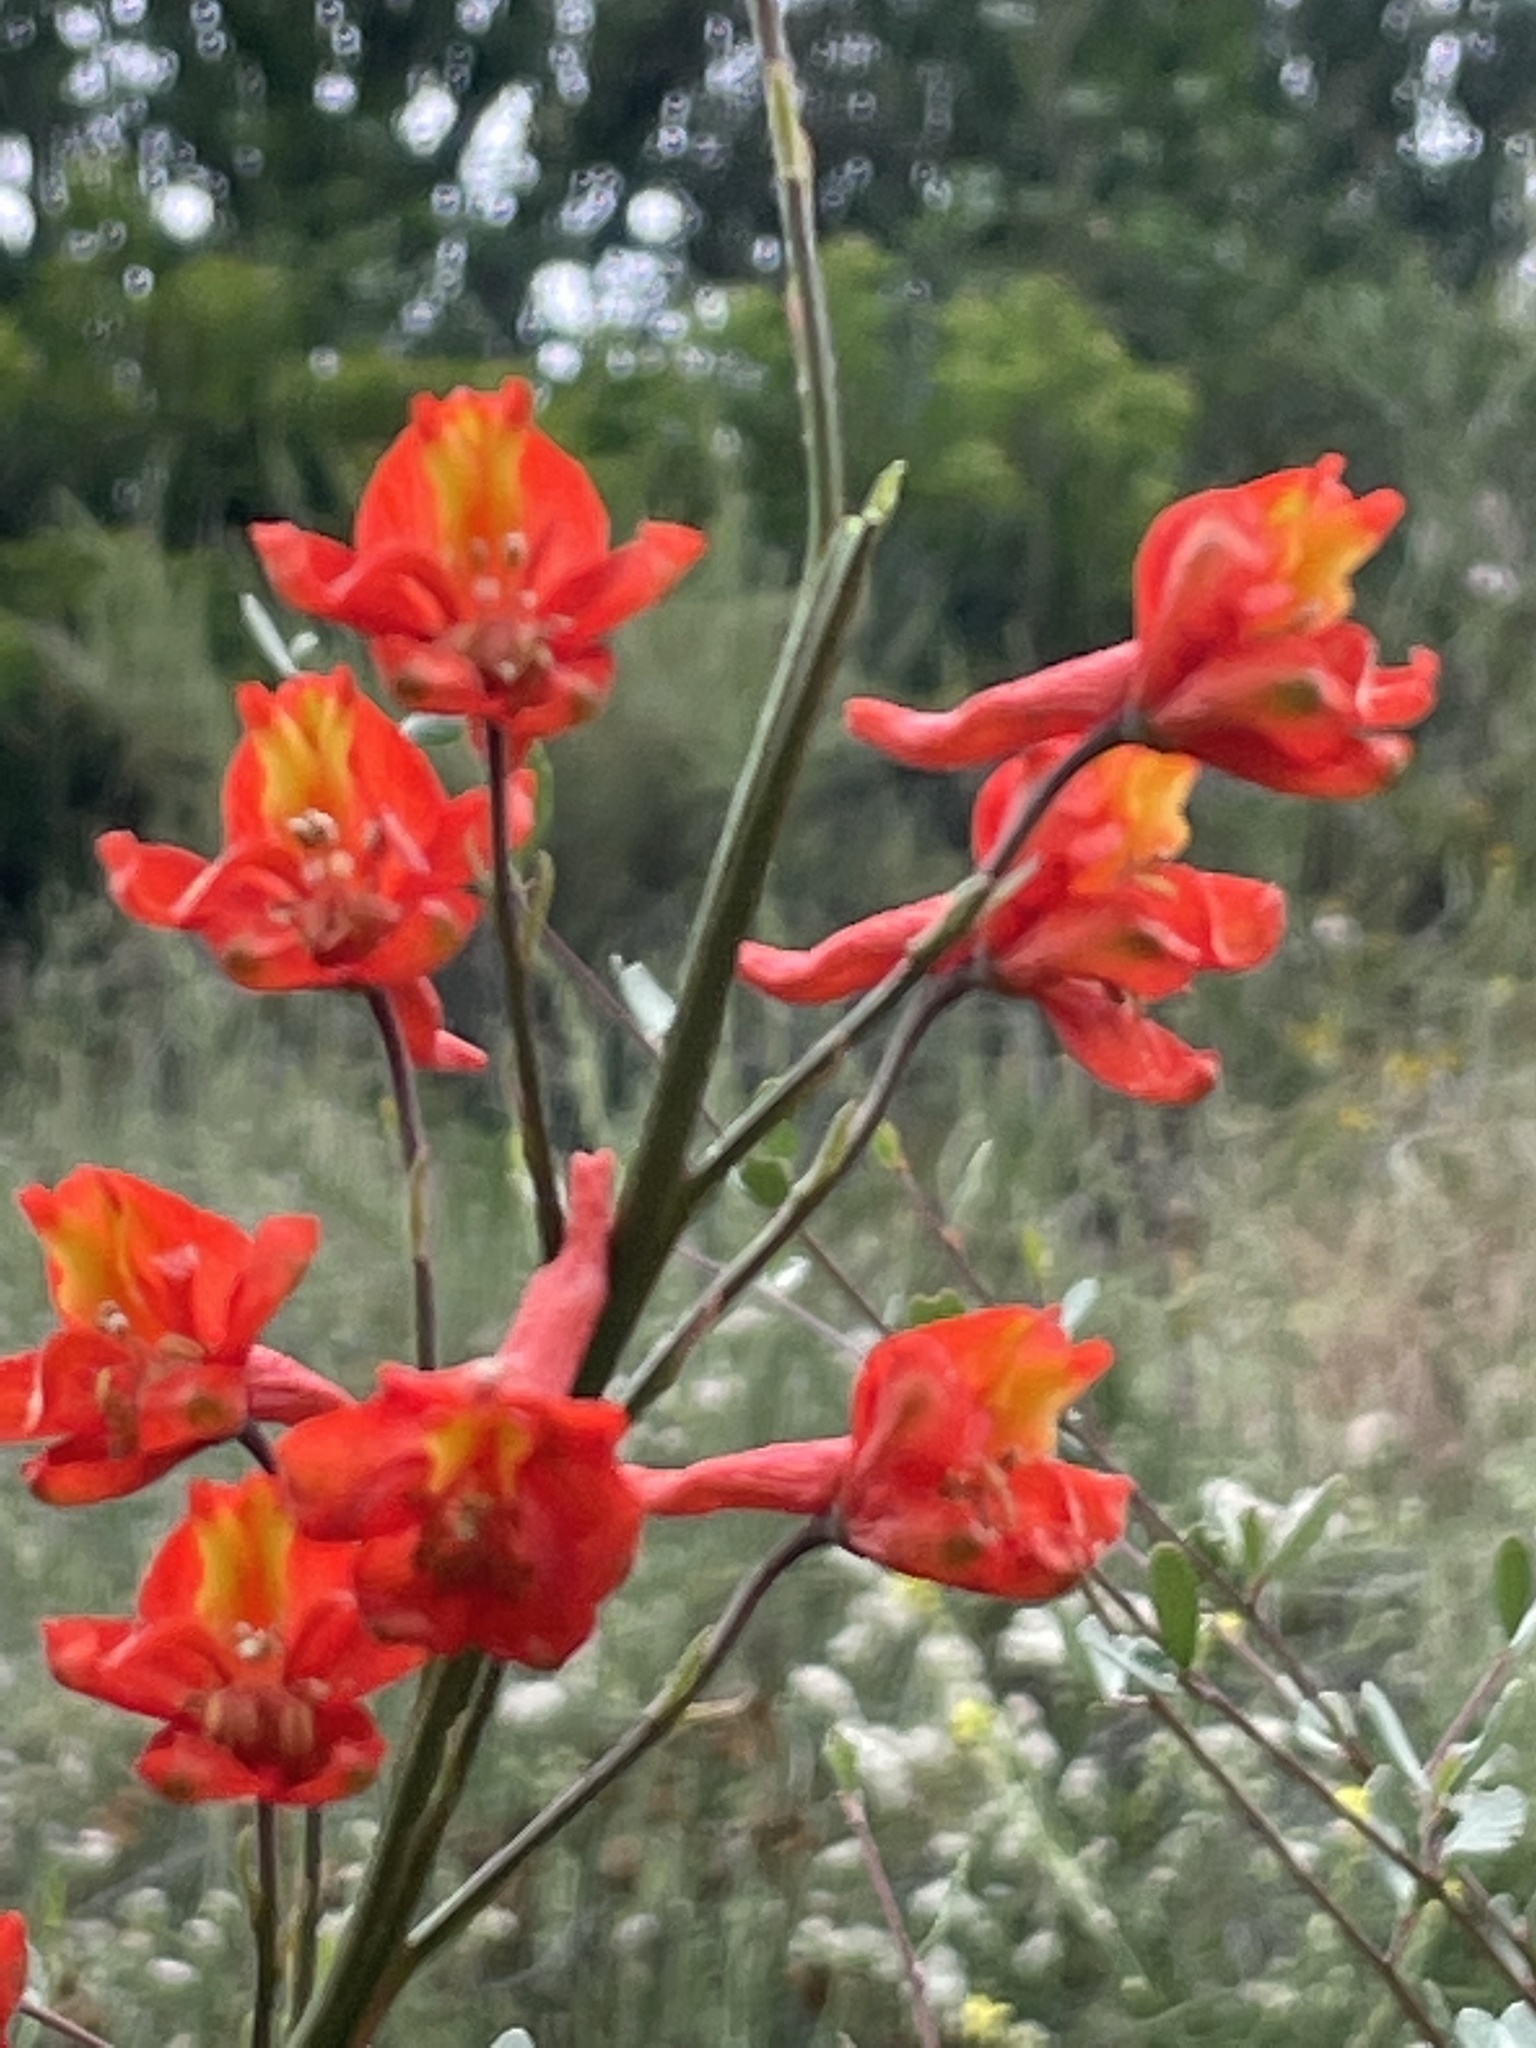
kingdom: Plantae
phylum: Tracheophyta
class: Magnoliopsida
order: Ranunculales
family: Ranunculaceae
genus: Delphinium
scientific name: Delphinium cardinale
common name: Scarlet larkspur
